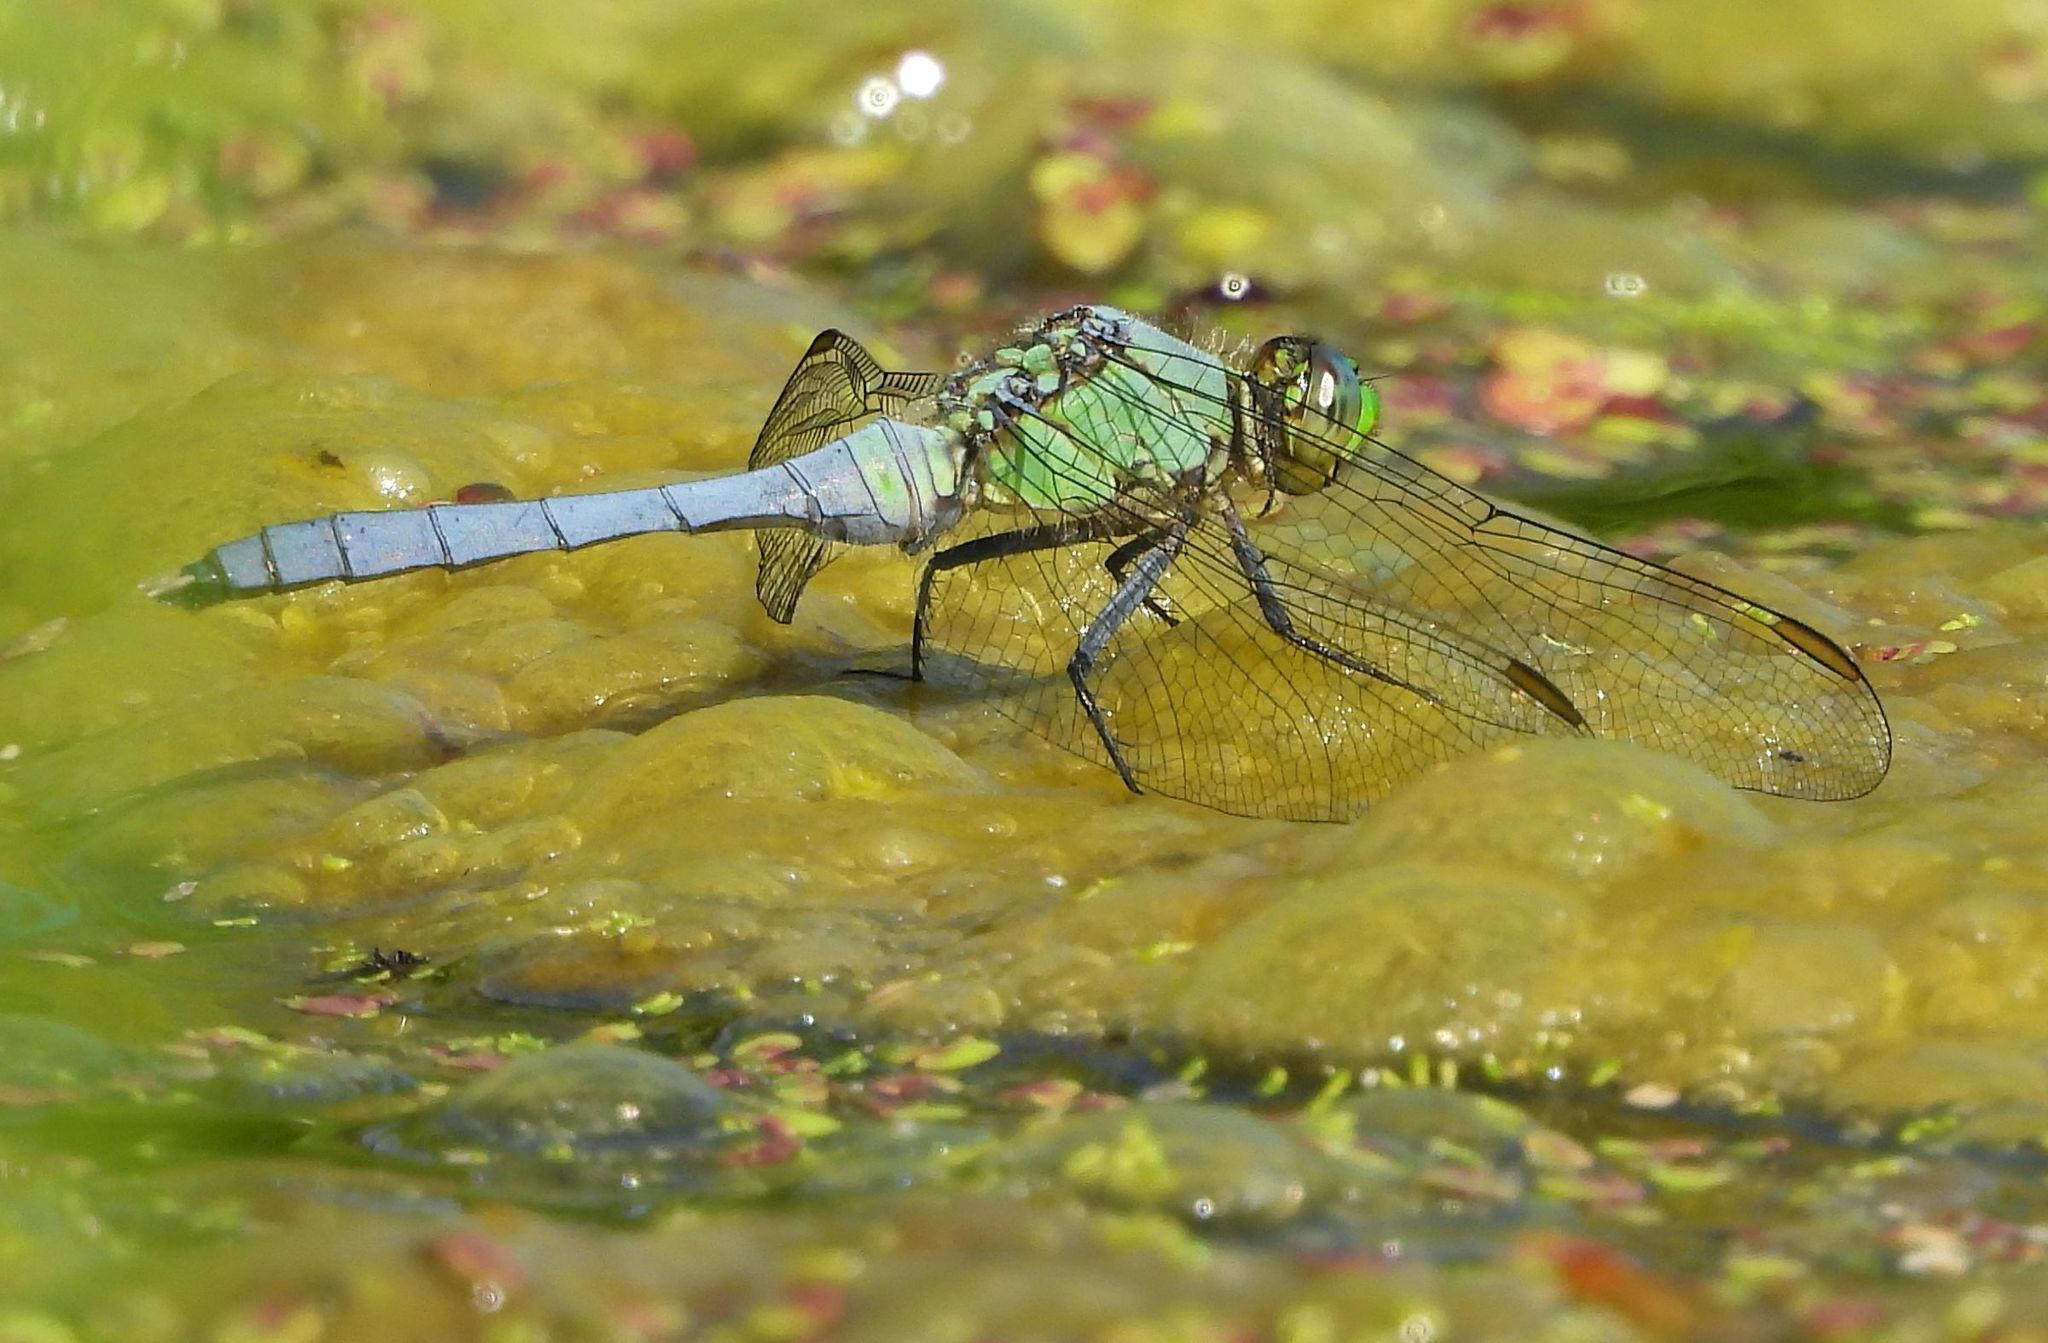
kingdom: Animalia
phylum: Arthropoda
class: Insecta
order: Odonata
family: Libellulidae
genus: Erythemis
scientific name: Erythemis simplicicollis
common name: Eastern pondhawk
